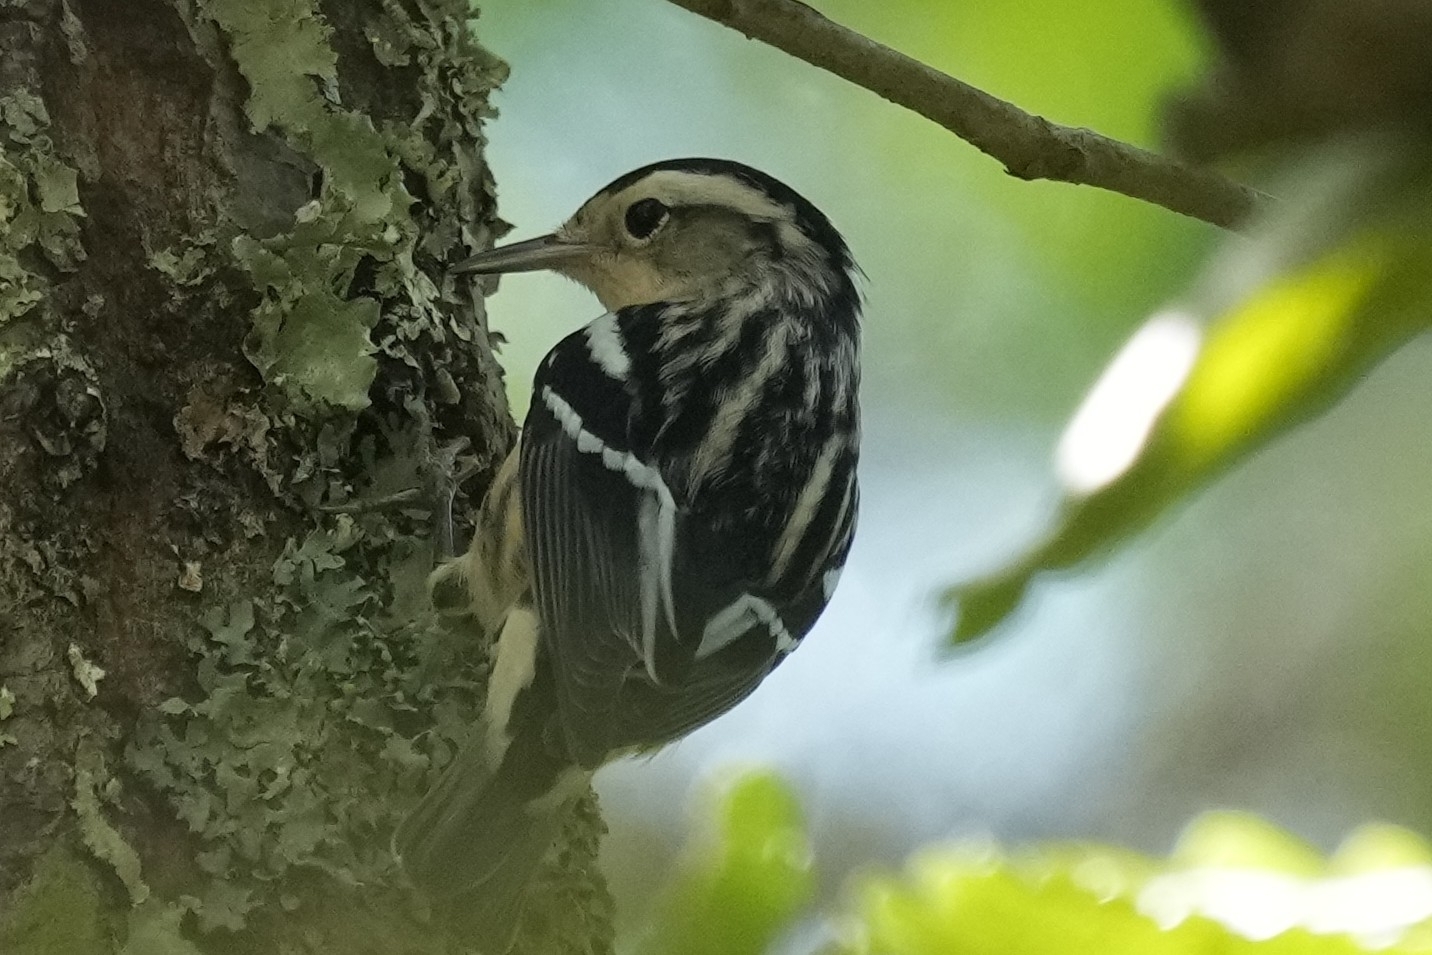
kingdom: Animalia
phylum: Chordata
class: Aves
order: Passeriformes
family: Parulidae
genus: Mniotilta
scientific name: Mniotilta varia
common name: Black-and-white warbler
